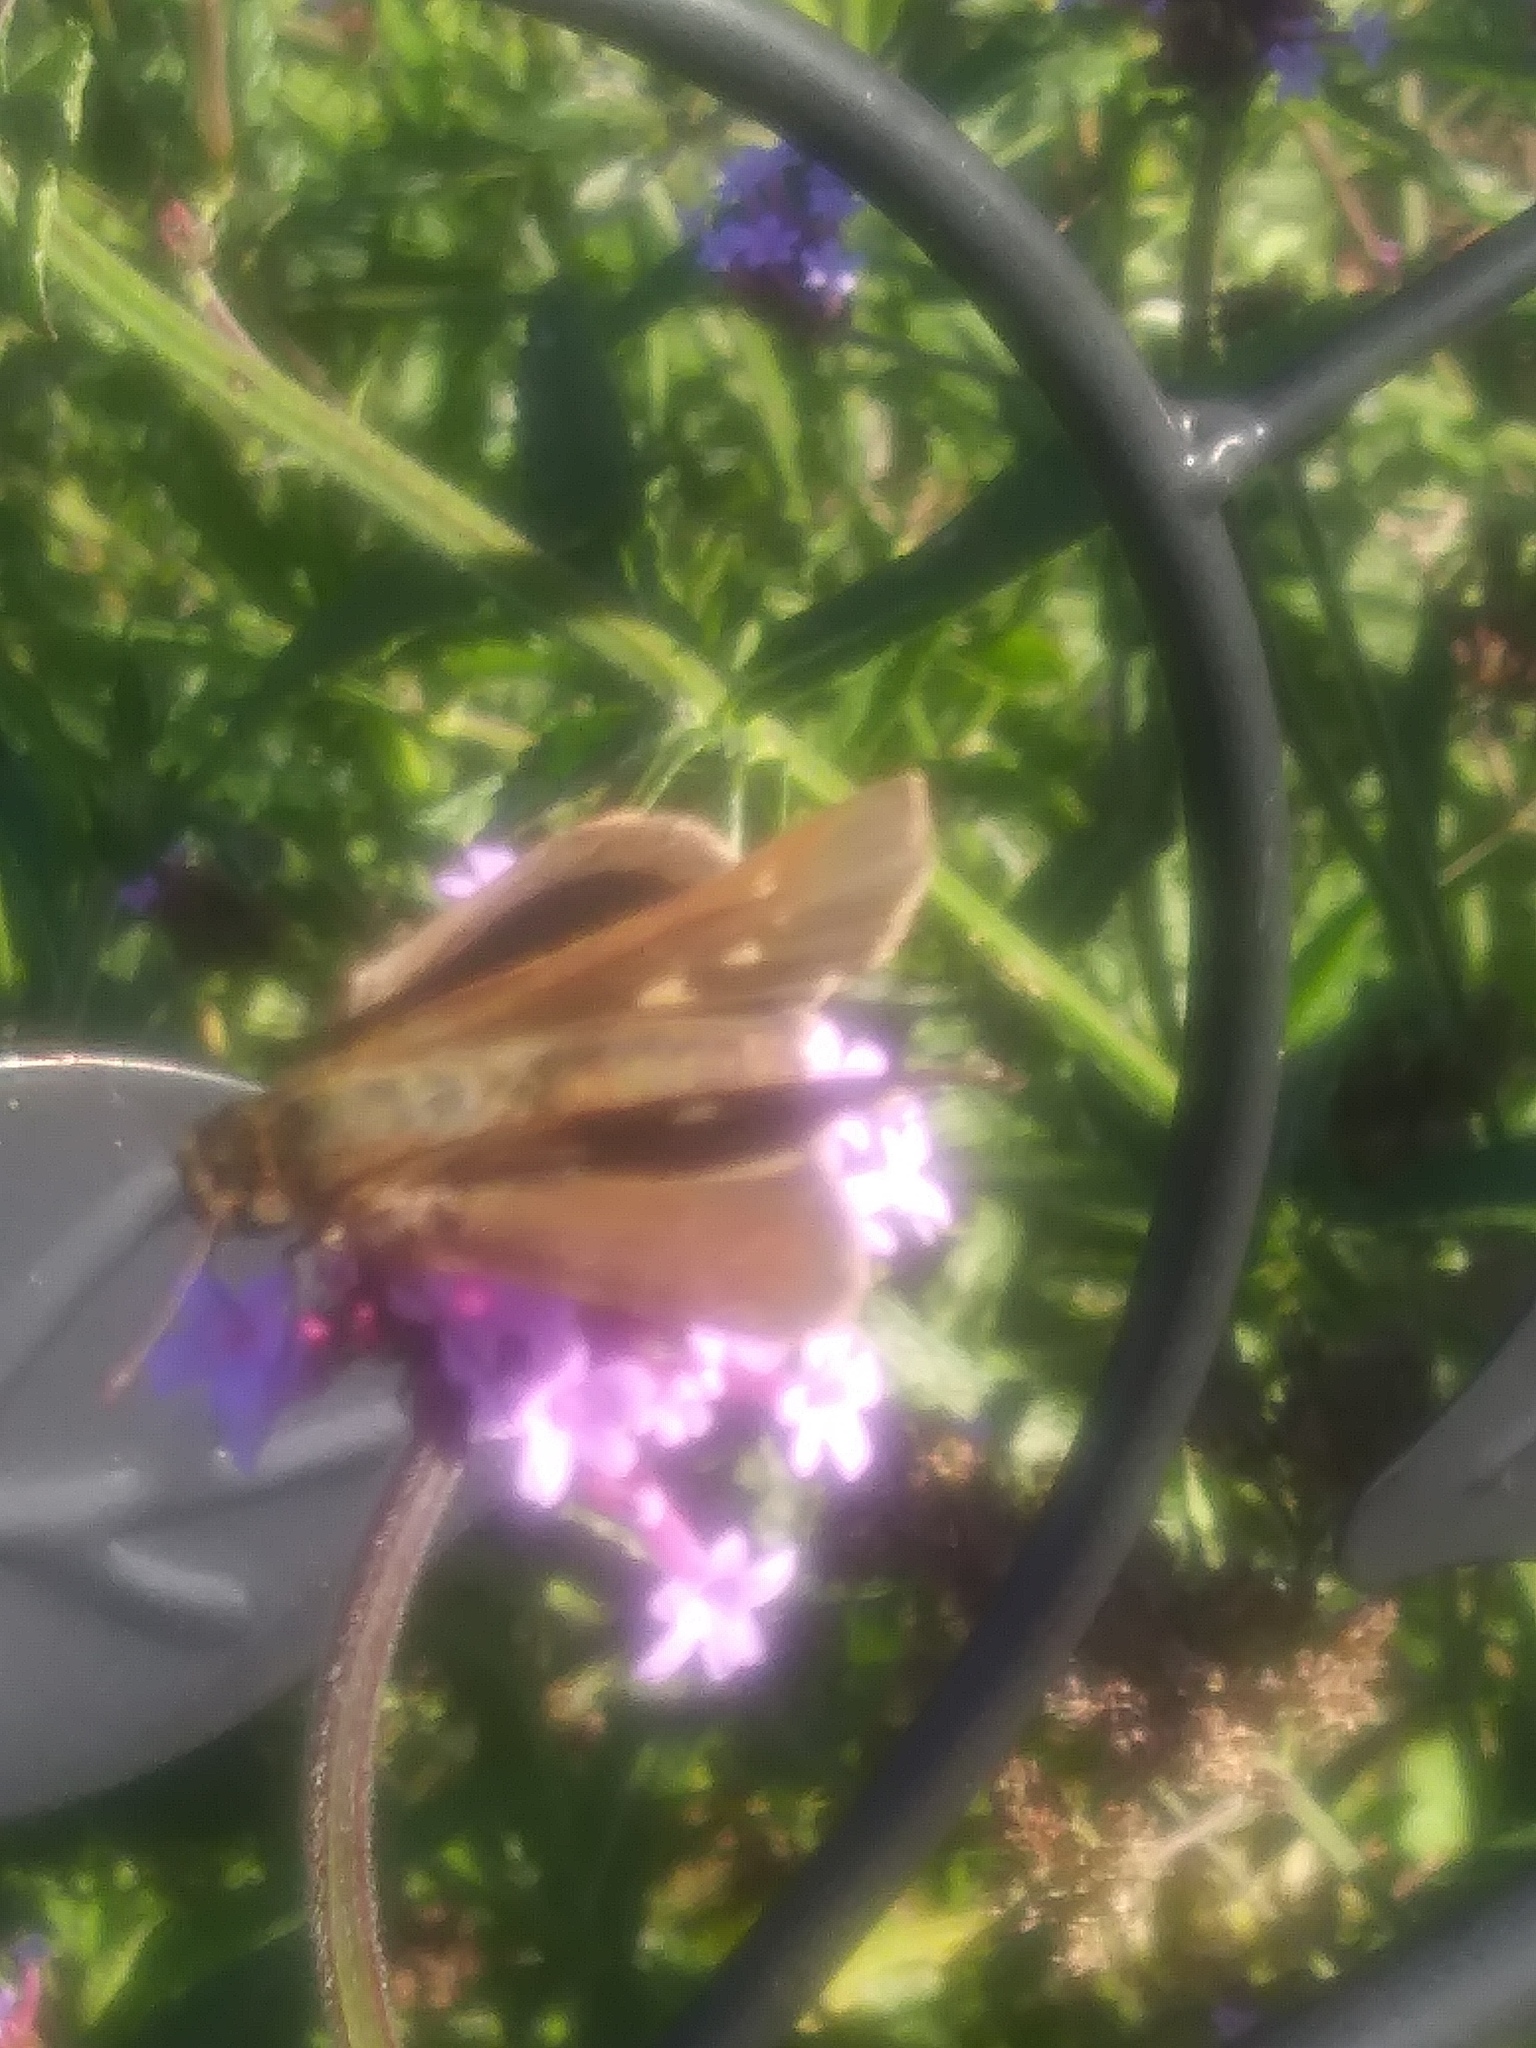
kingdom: Animalia
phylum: Arthropoda
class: Insecta
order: Lepidoptera
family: Hesperiidae
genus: Panoquina
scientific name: Panoquina ocola
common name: Ocola skipper
